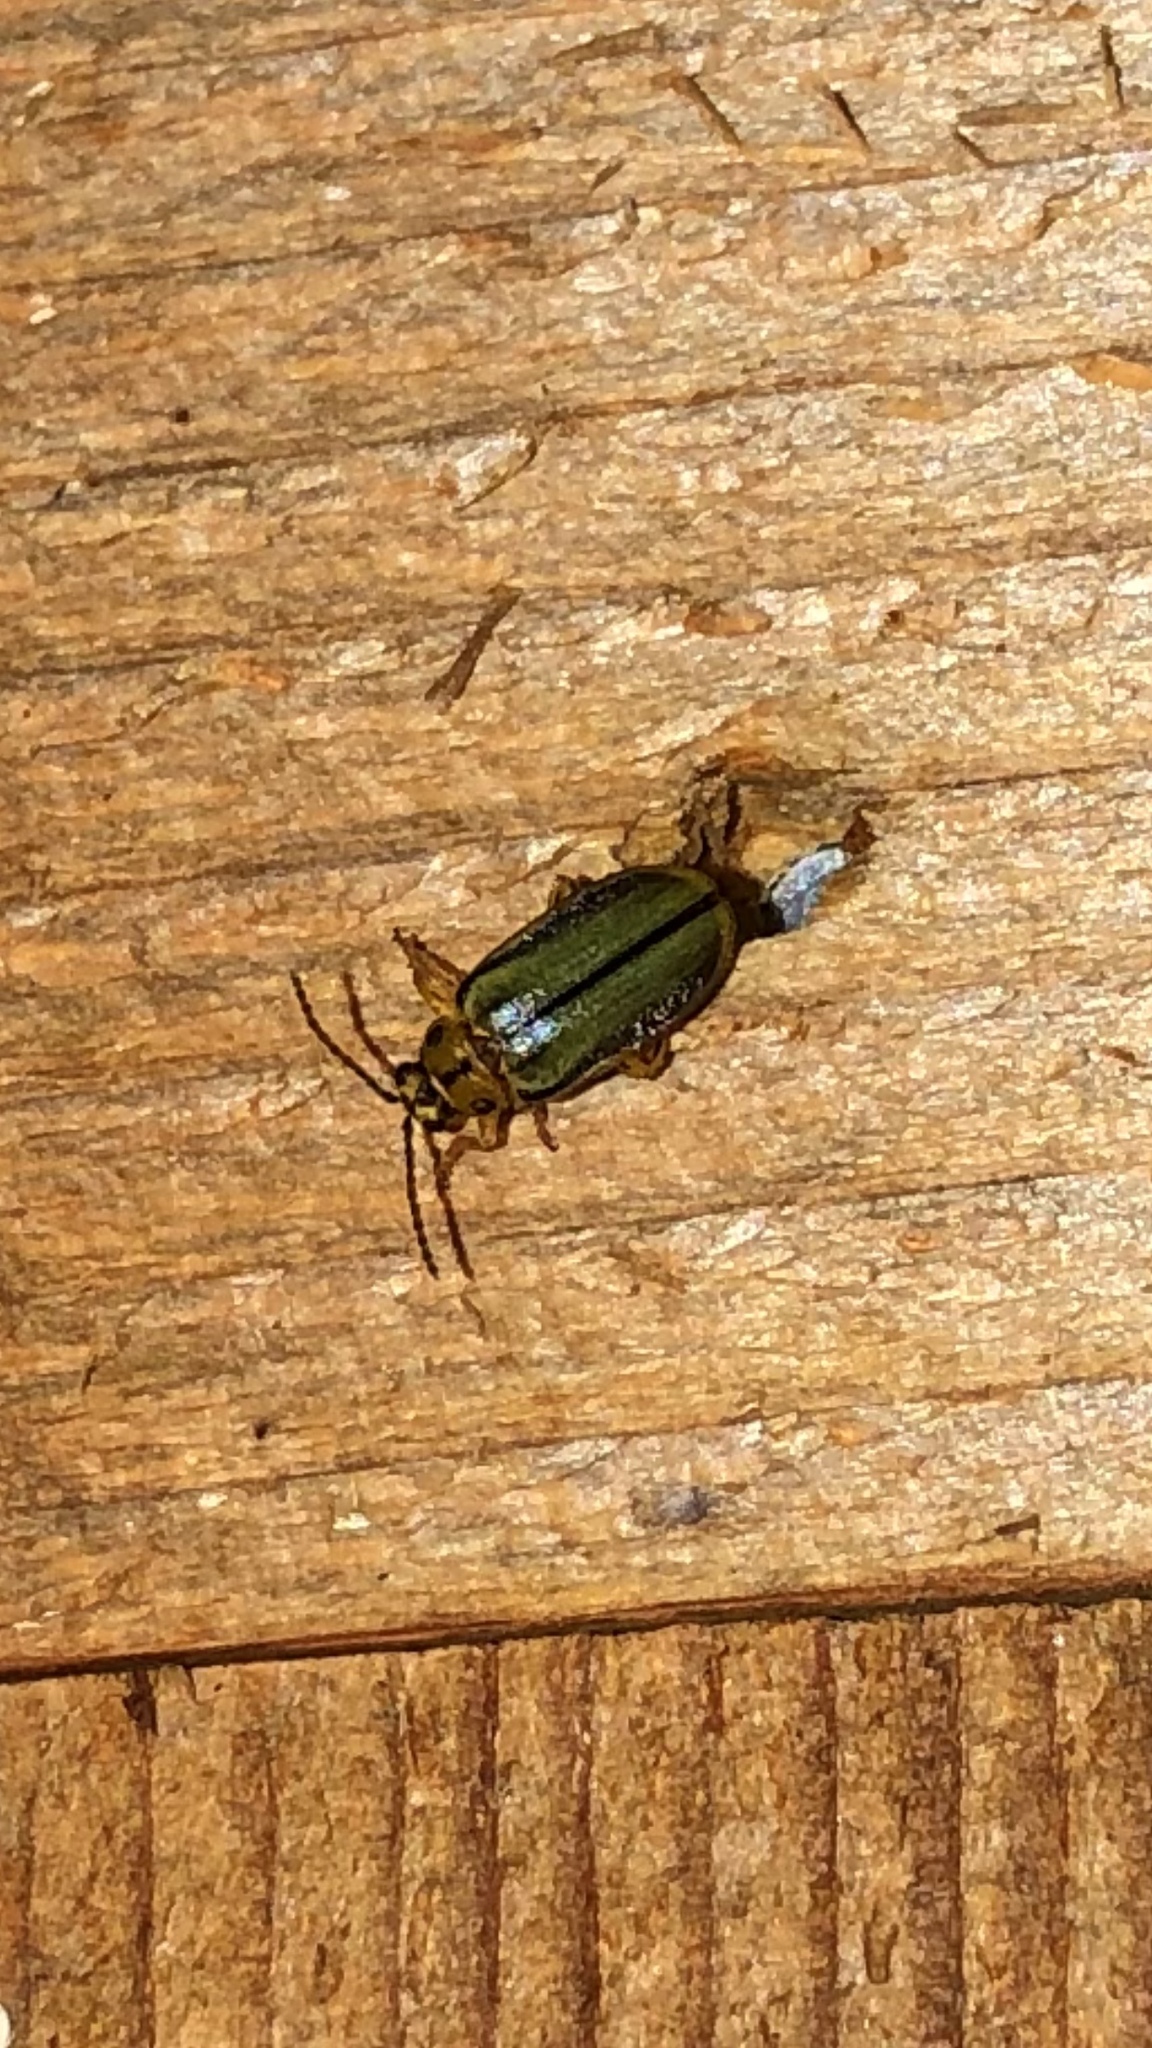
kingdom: Animalia
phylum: Arthropoda
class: Insecta
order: Coleoptera
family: Chrysomelidae
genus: Xanthogaleruca
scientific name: Xanthogaleruca luteola
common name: Elm leaf beetle
